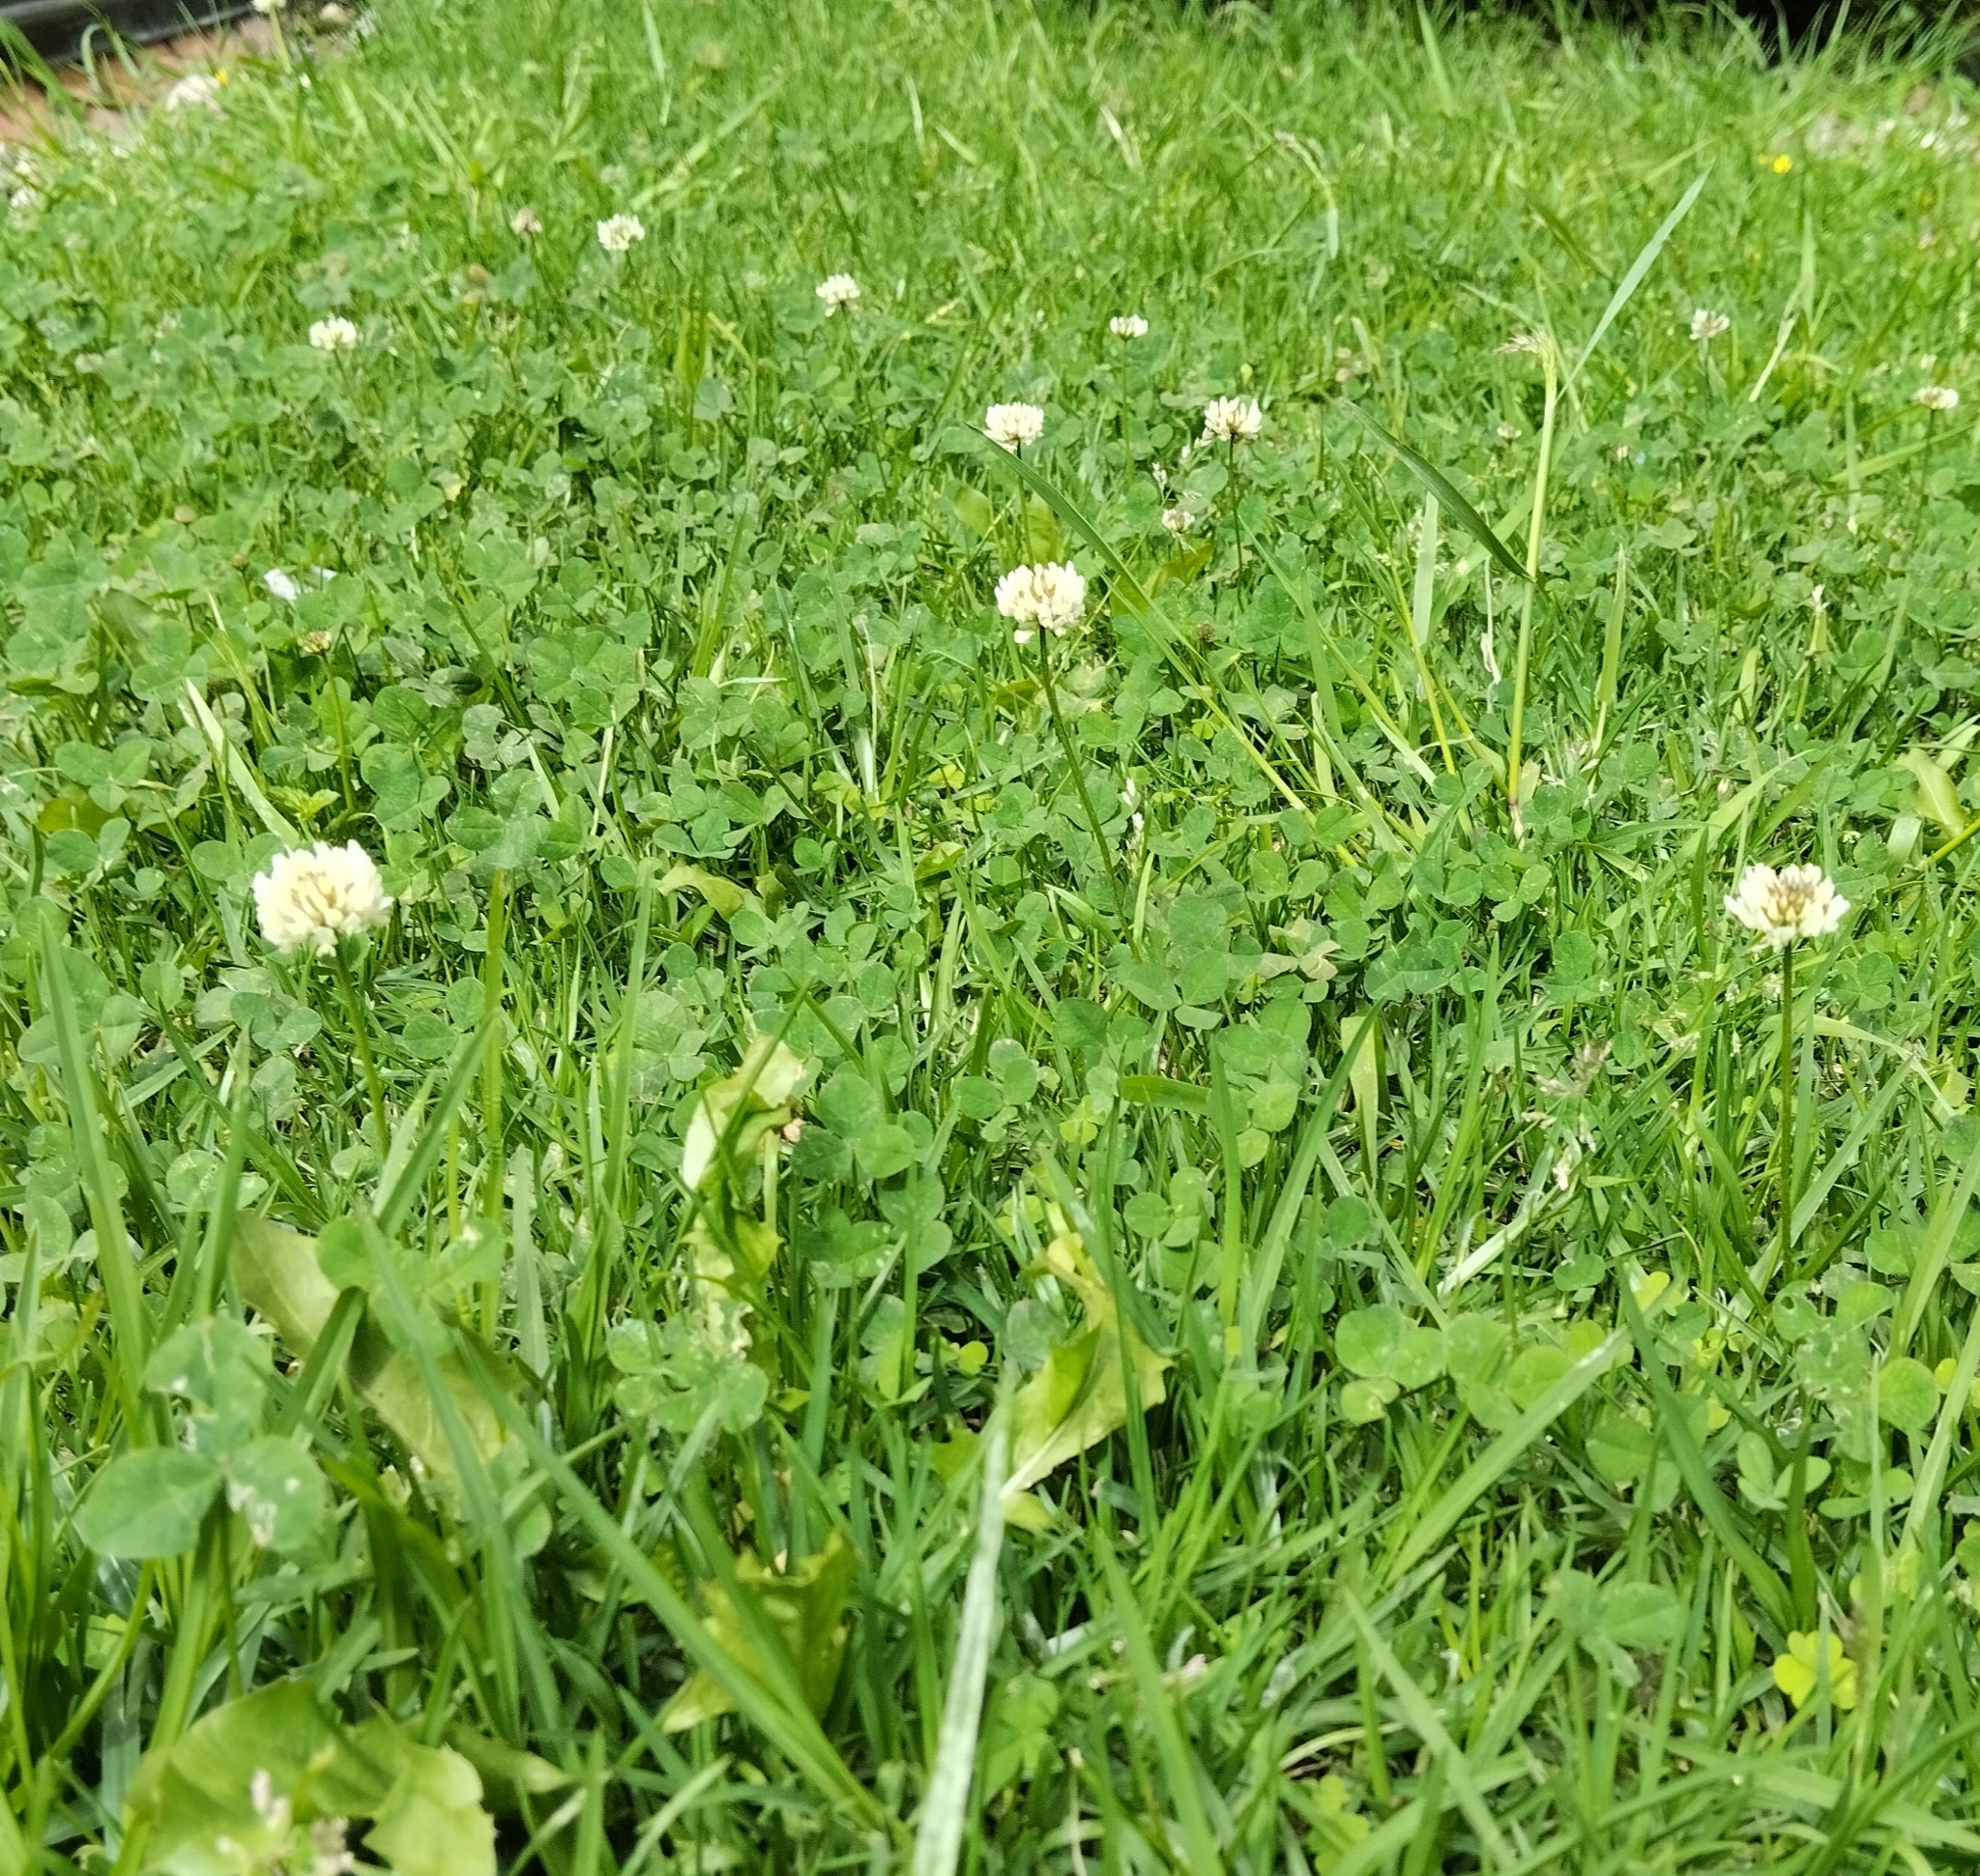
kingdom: Plantae
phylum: Tracheophyta
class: Magnoliopsida
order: Fabales
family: Fabaceae
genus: Trifolium
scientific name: Trifolium repens
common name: White clover
